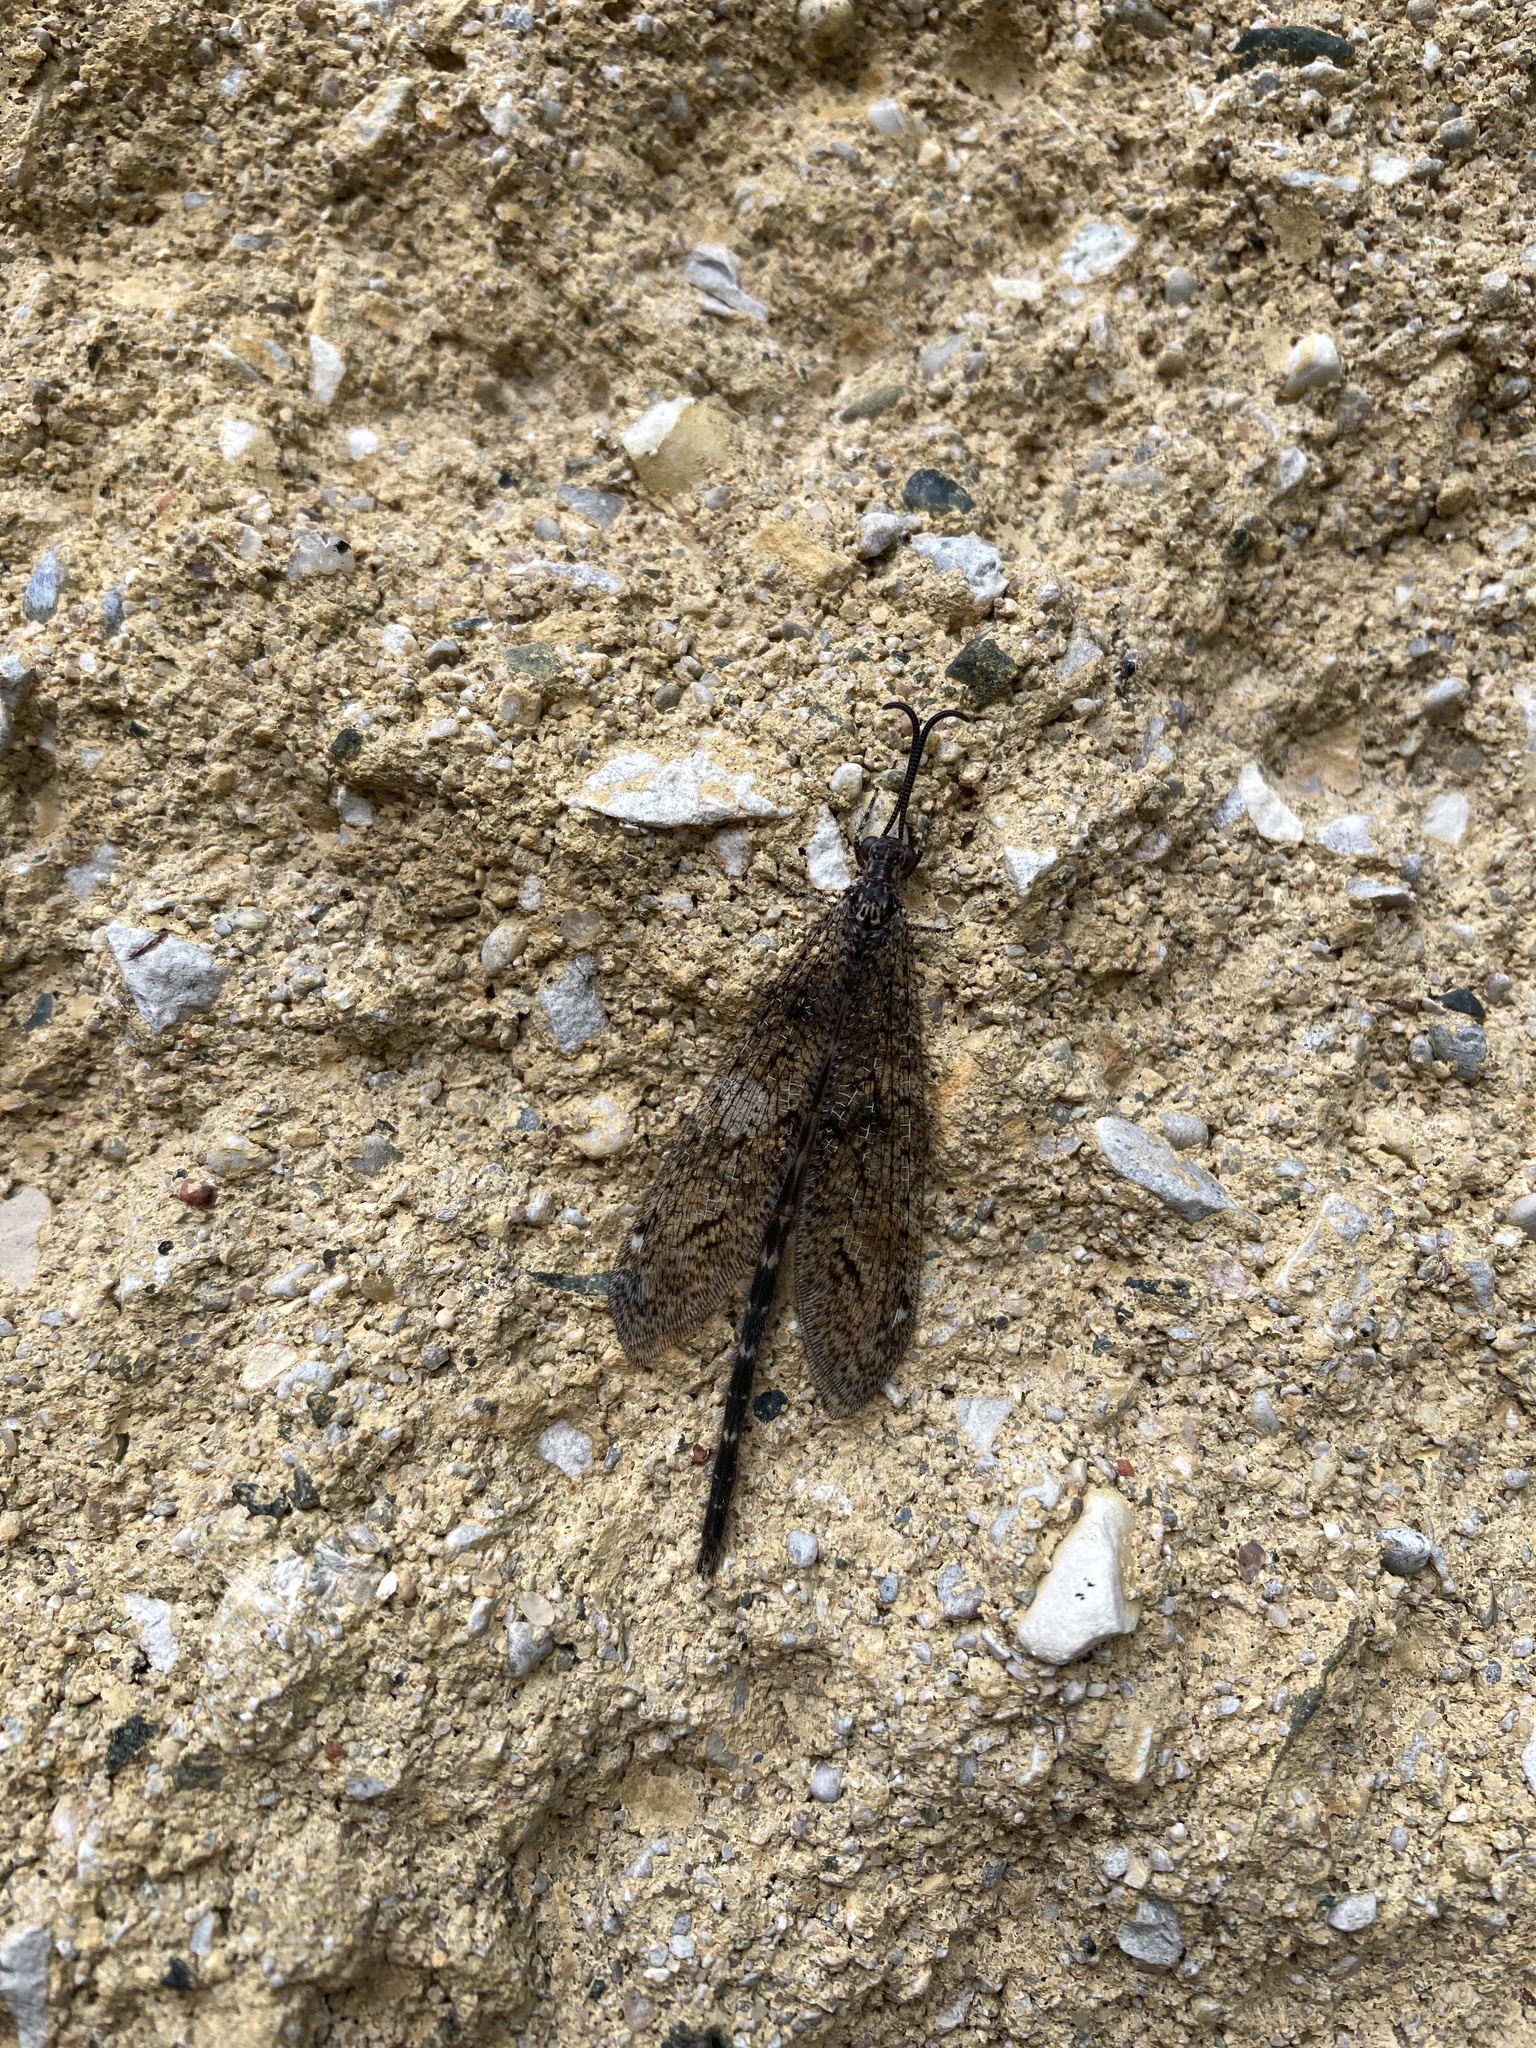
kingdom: Animalia
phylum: Arthropoda
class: Insecta
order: Neuroptera
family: Myrmeleontidae
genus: Brachynemurus
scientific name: Brachynemurus nebulosus
